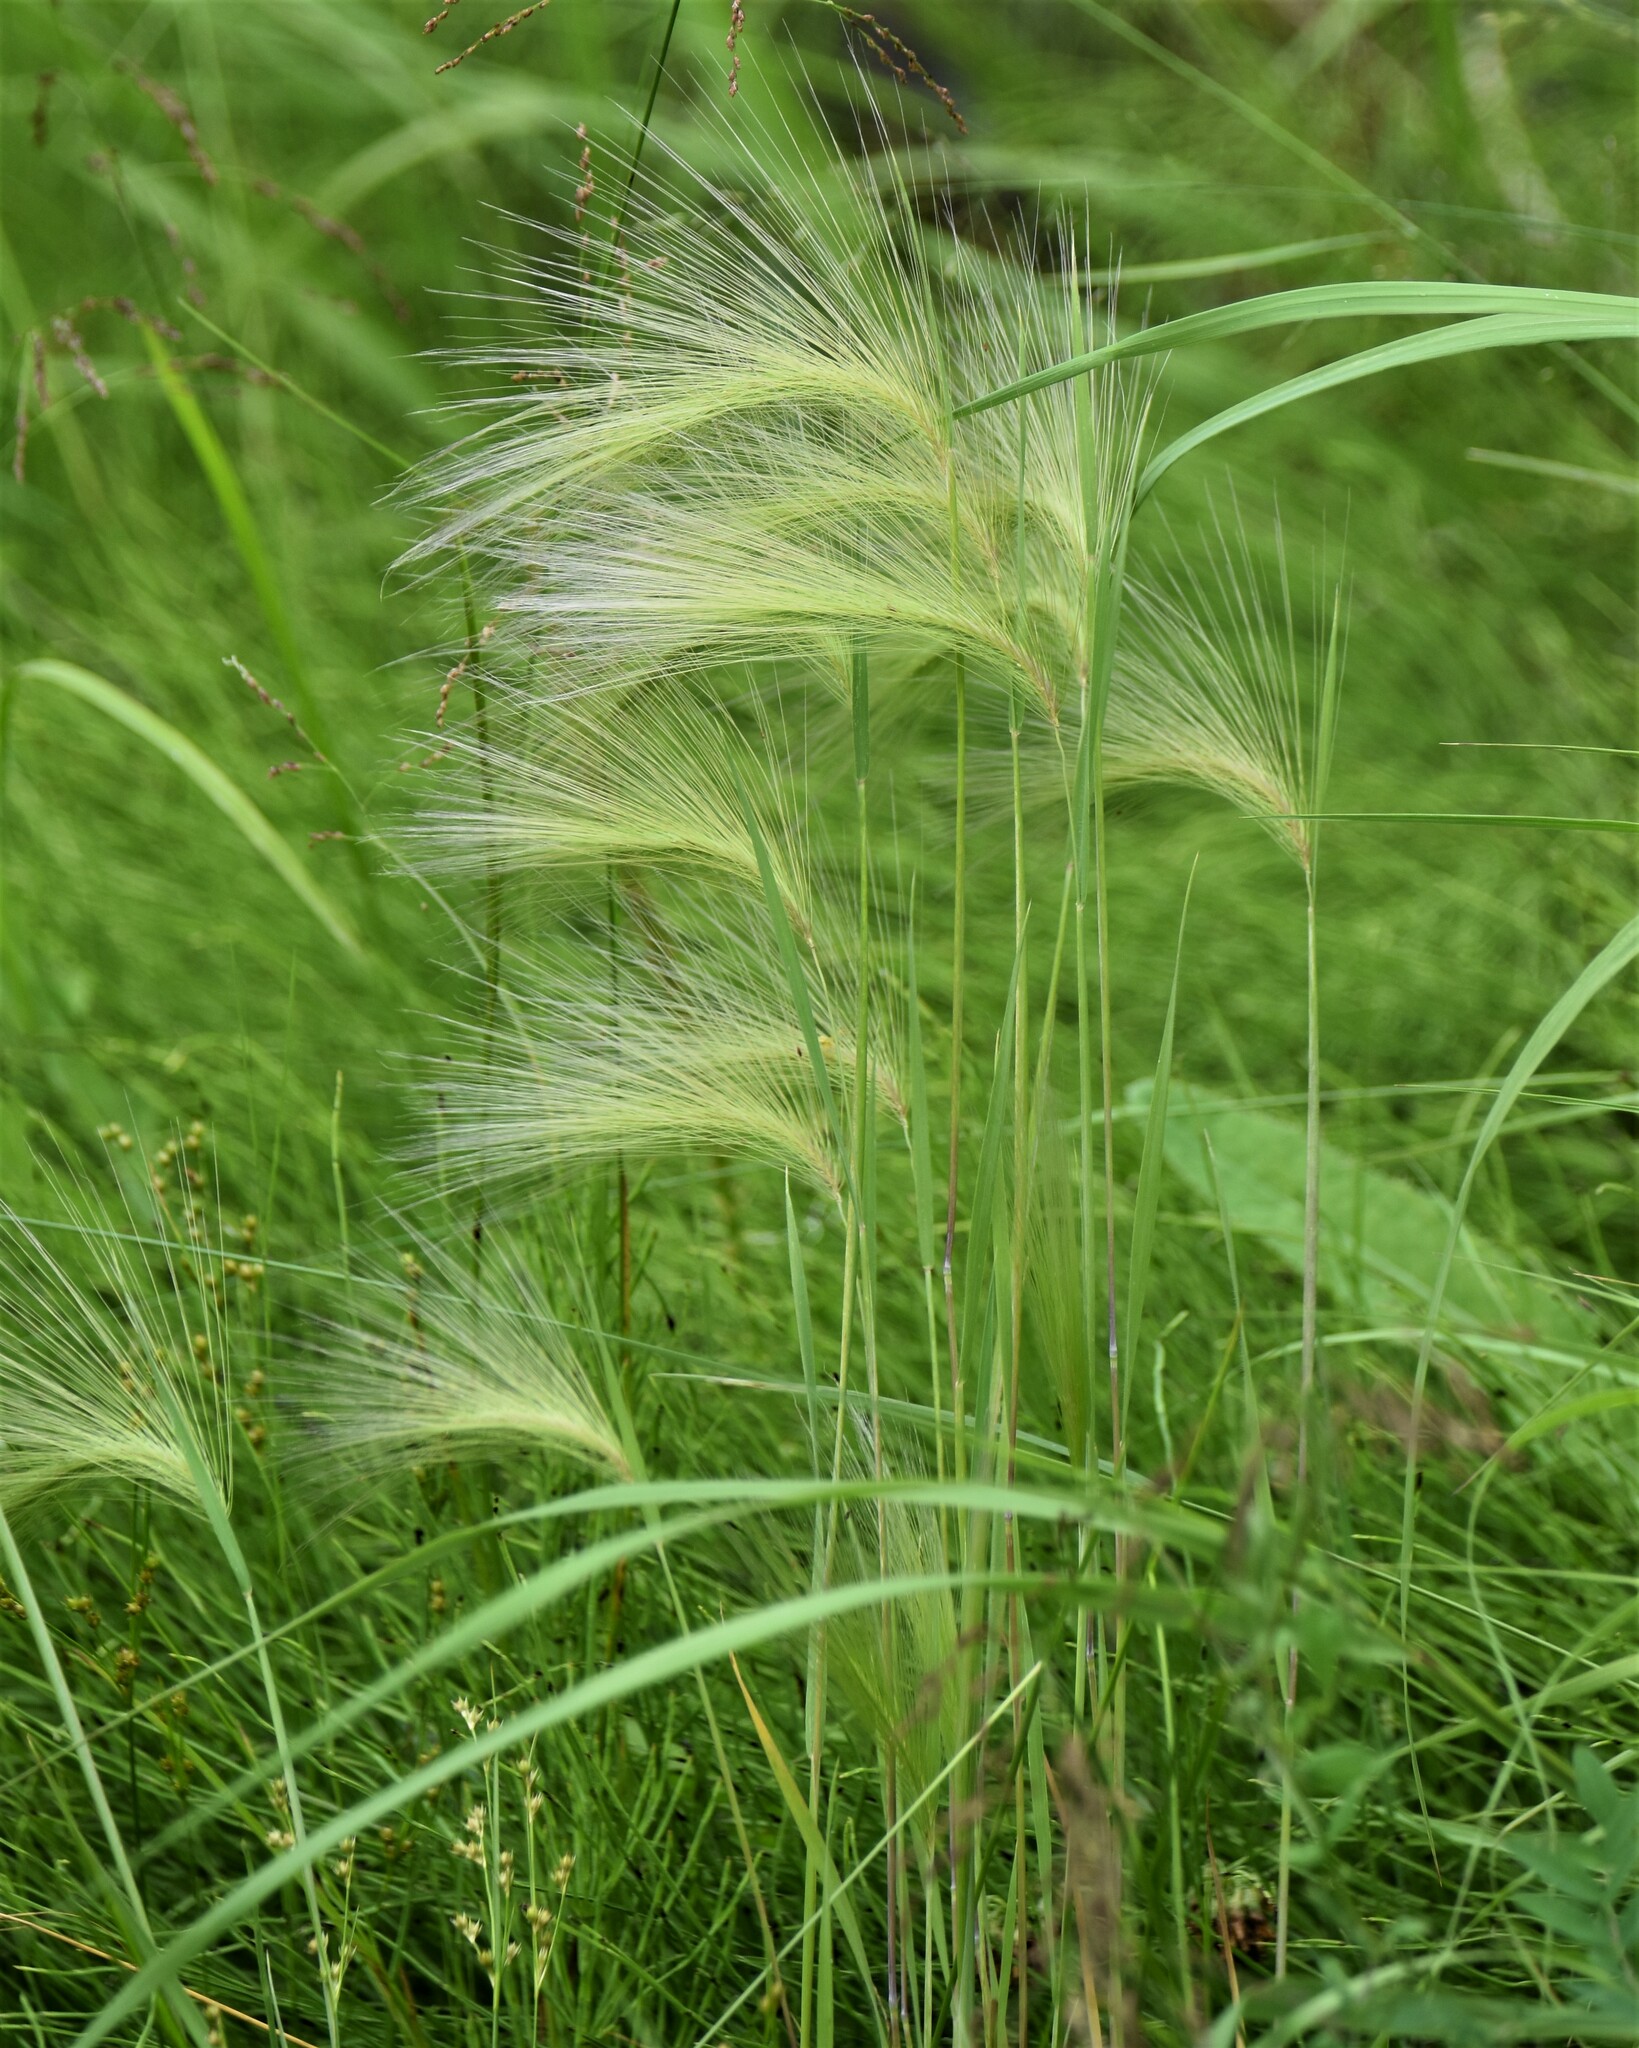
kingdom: Plantae
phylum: Tracheophyta
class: Liliopsida
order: Poales
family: Poaceae
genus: Hordeum
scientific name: Hordeum jubatum
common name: Foxtail barley
